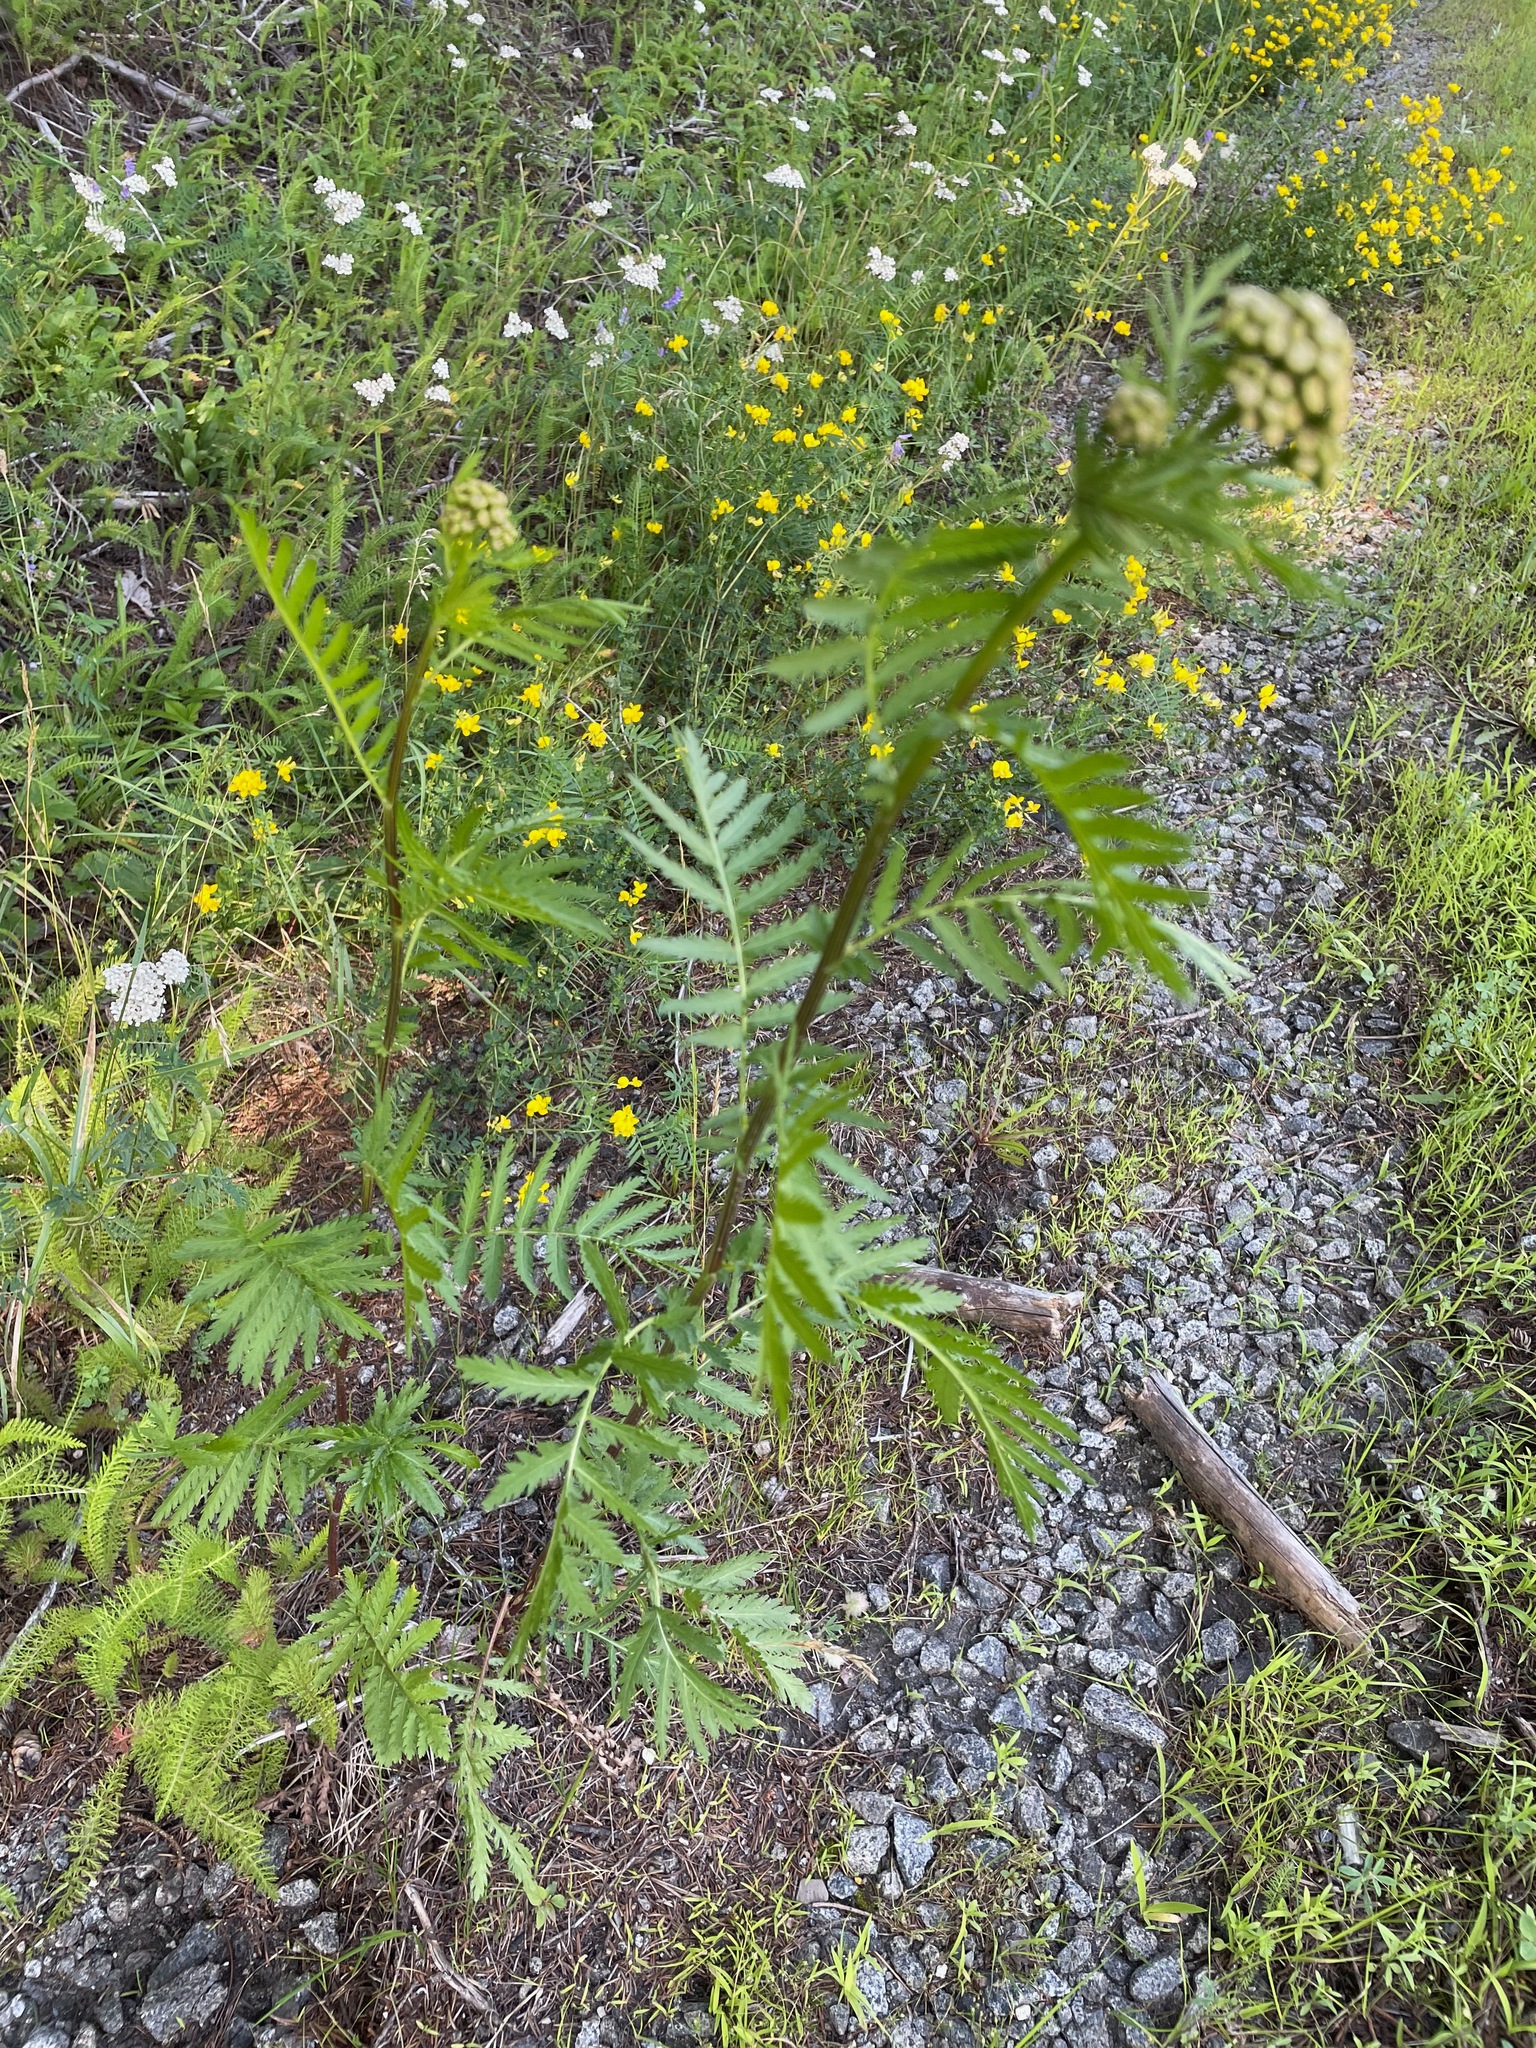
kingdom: Plantae
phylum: Tracheophyta
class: Magnoliopsida
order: Asterales
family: Asteraceae
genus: Tanacetum
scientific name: Tanacetum vulgare
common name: Common tansy
